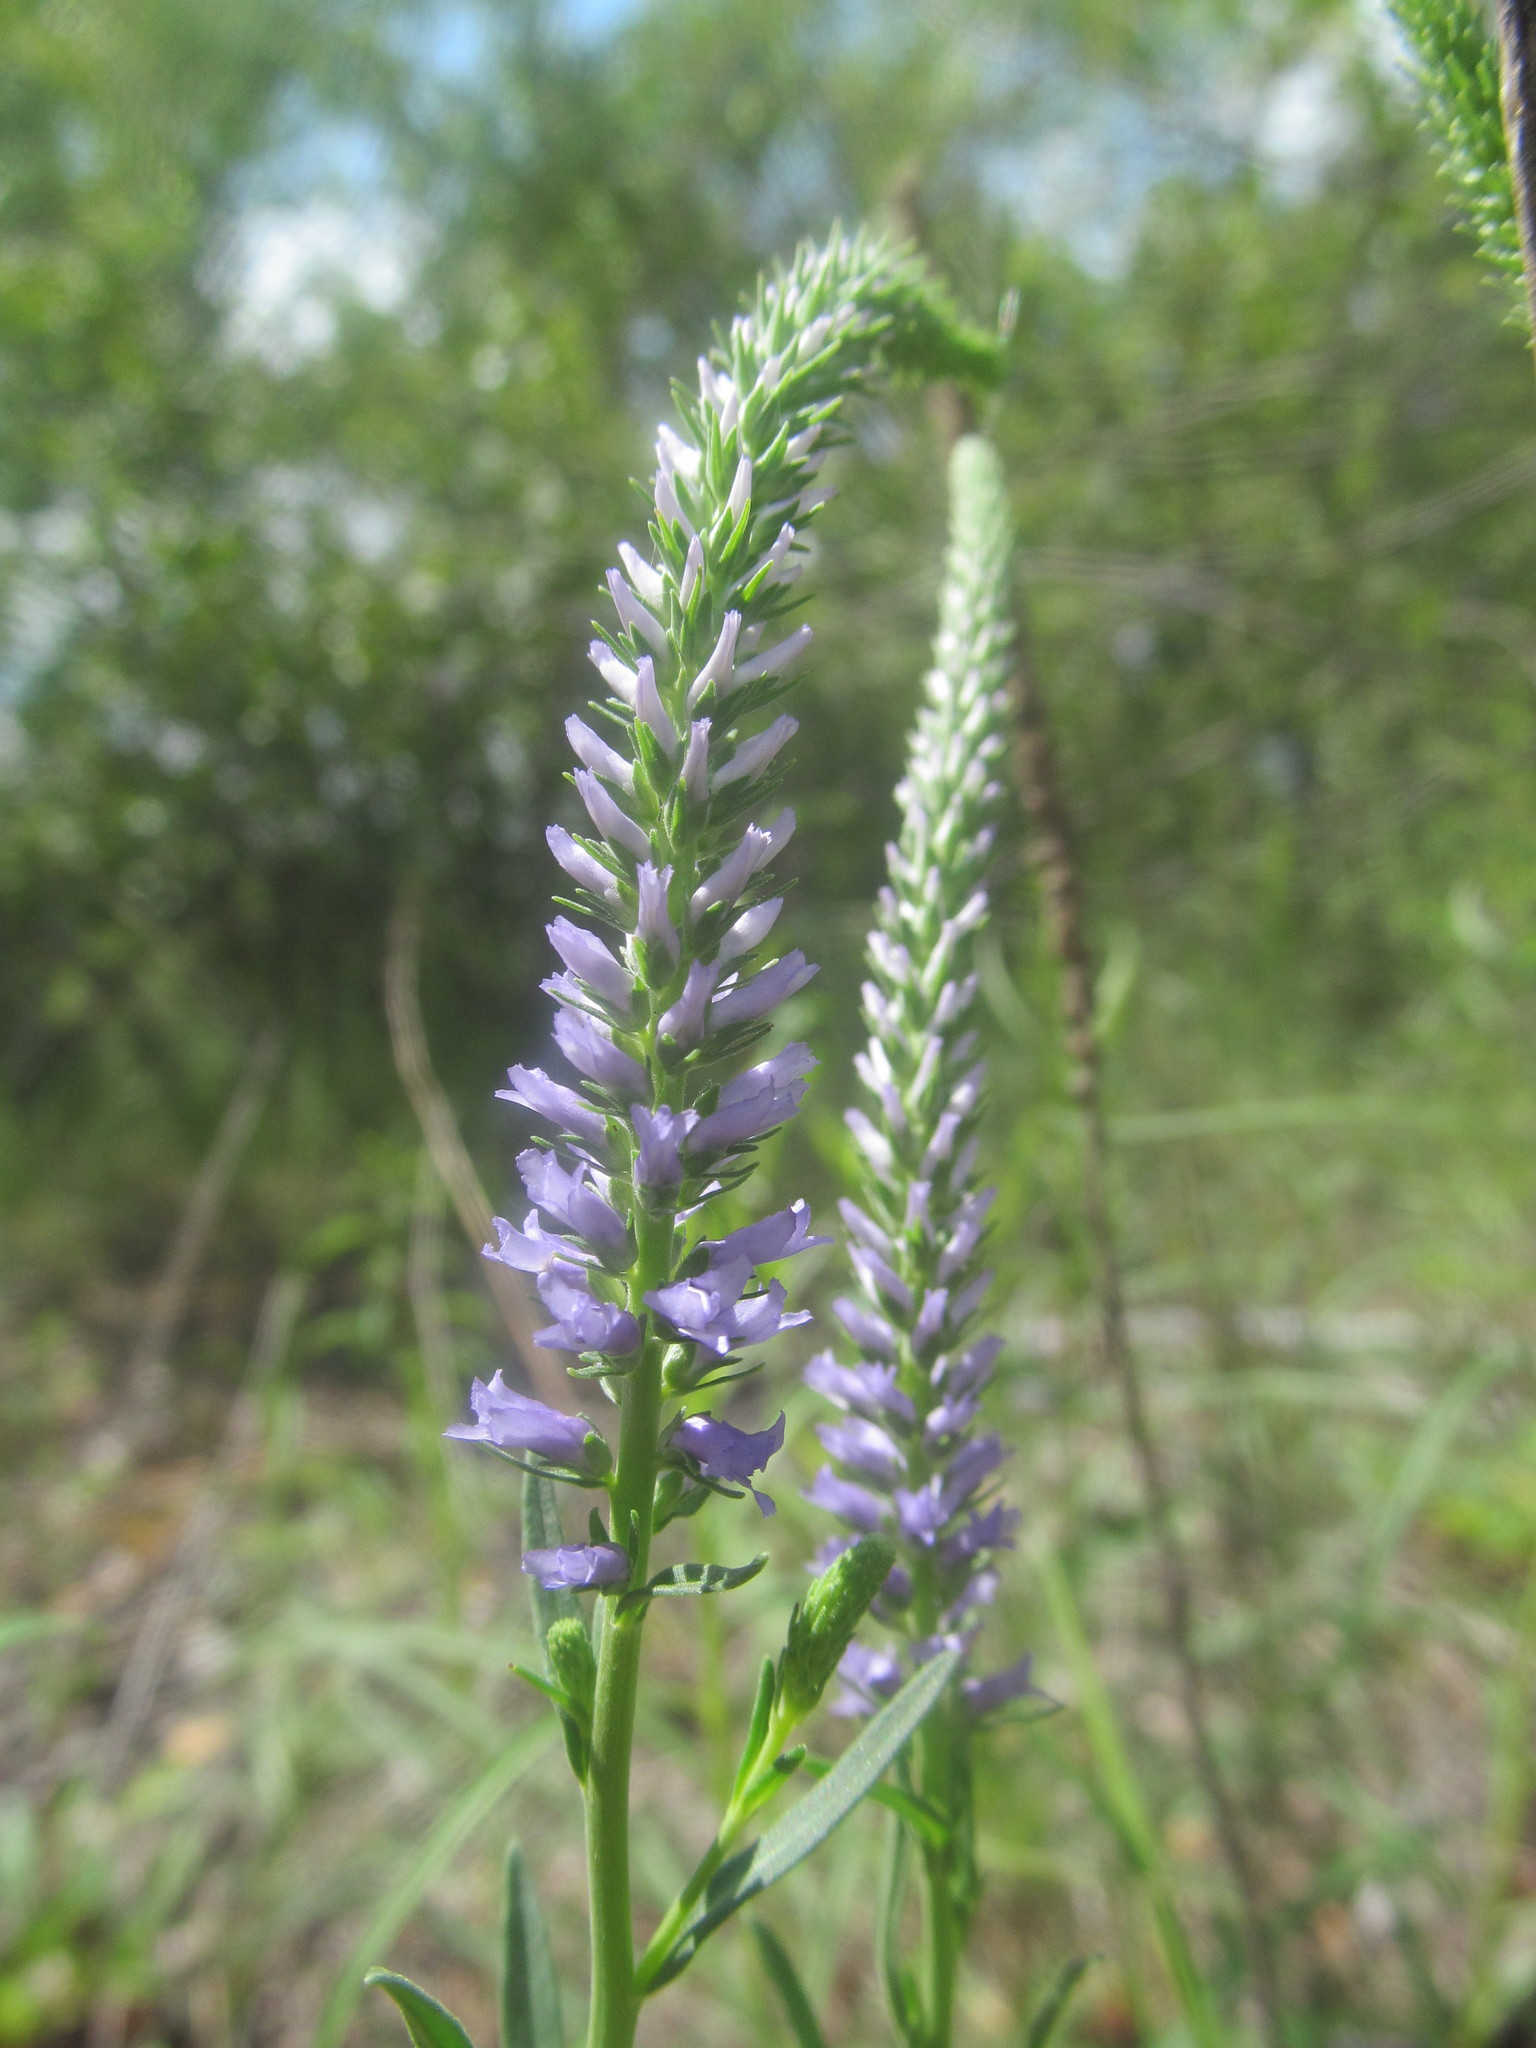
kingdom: Plantae
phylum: Tracheophyta
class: Magnoliopsida
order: Lamiales
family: Plantaginaceae
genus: Veronica
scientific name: Veronica spicata
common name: Spiked speedwell
